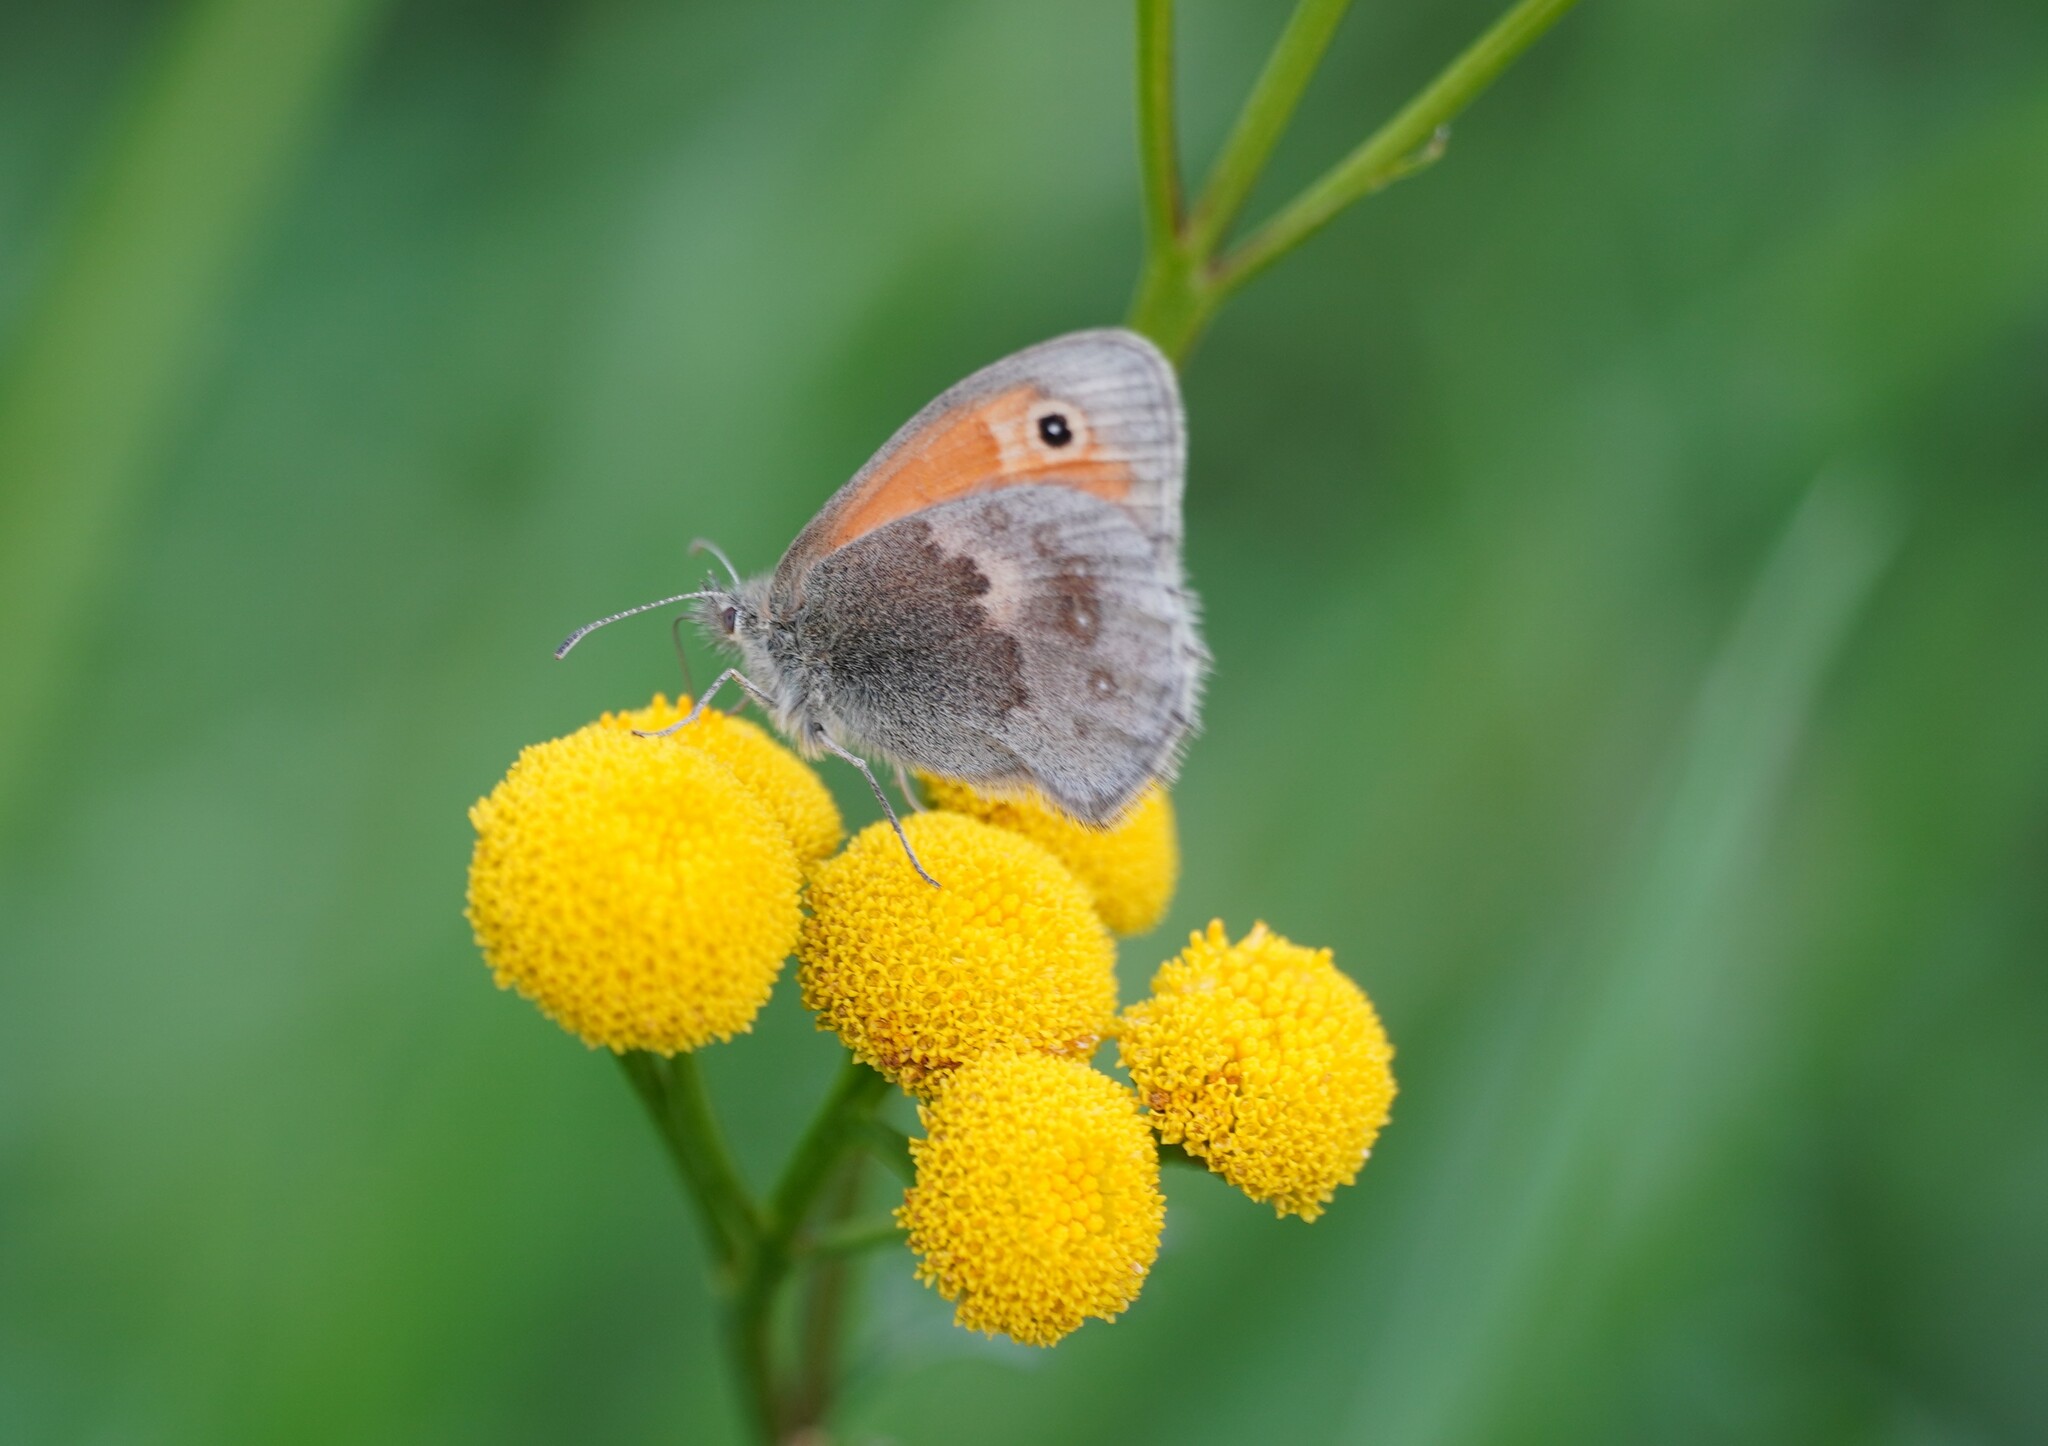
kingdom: Animalia
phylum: Arthropoda
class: Insecta
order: Lepidoptera
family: Nymphalidae
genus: Coenonympha
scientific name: Coenonympha pamphilus
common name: Small heath
